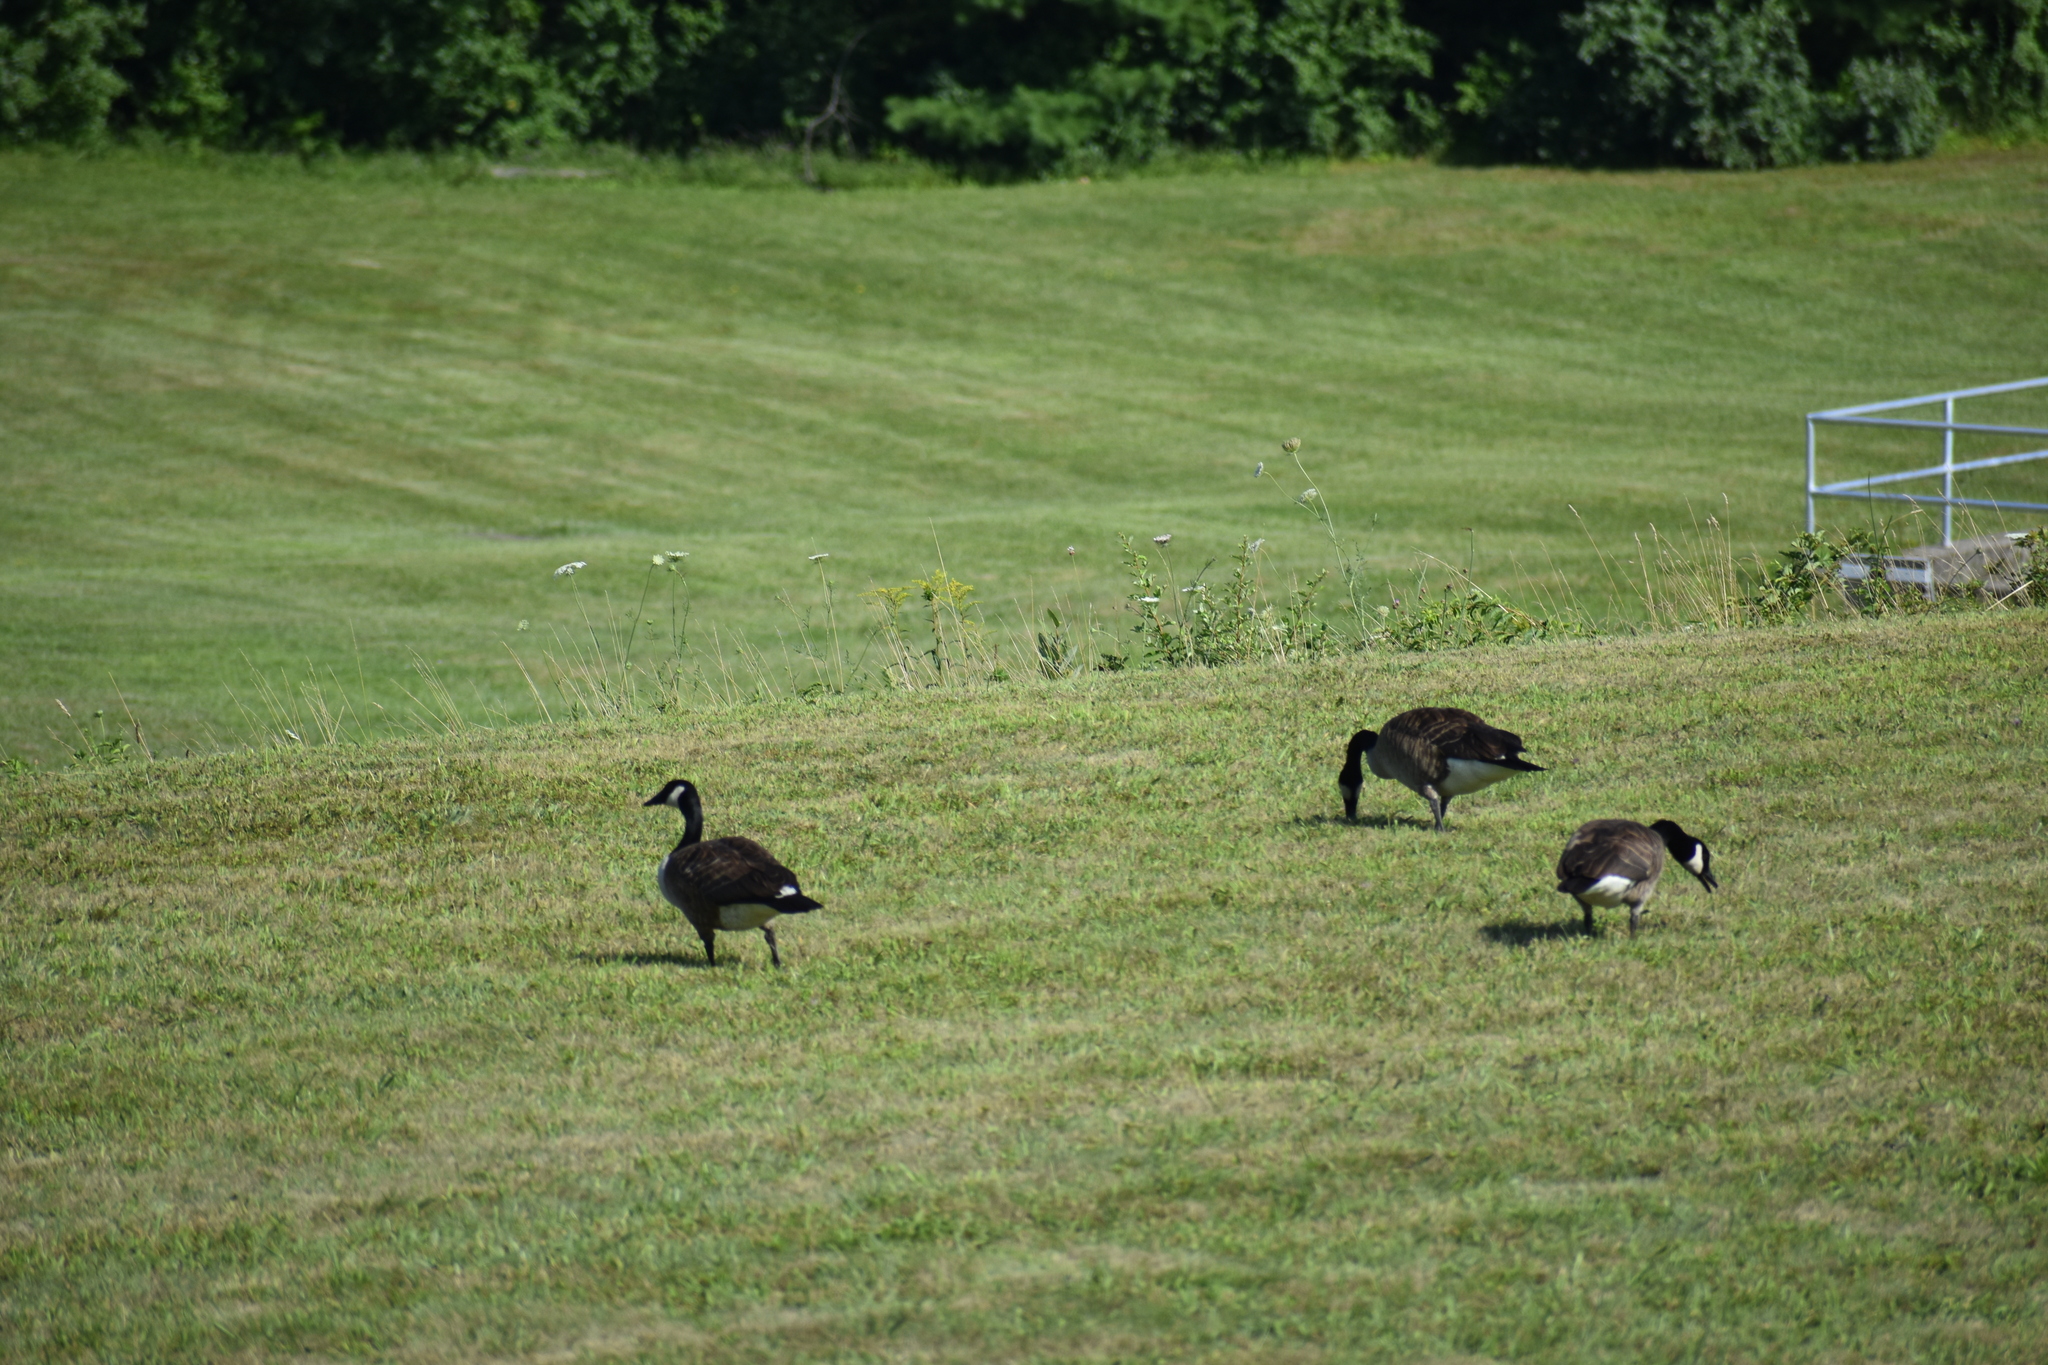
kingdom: Animalia
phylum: Chordata
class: Aves
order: Anseriformes
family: Anatidae
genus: Branta
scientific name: Branta canadensis
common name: Canada goose
